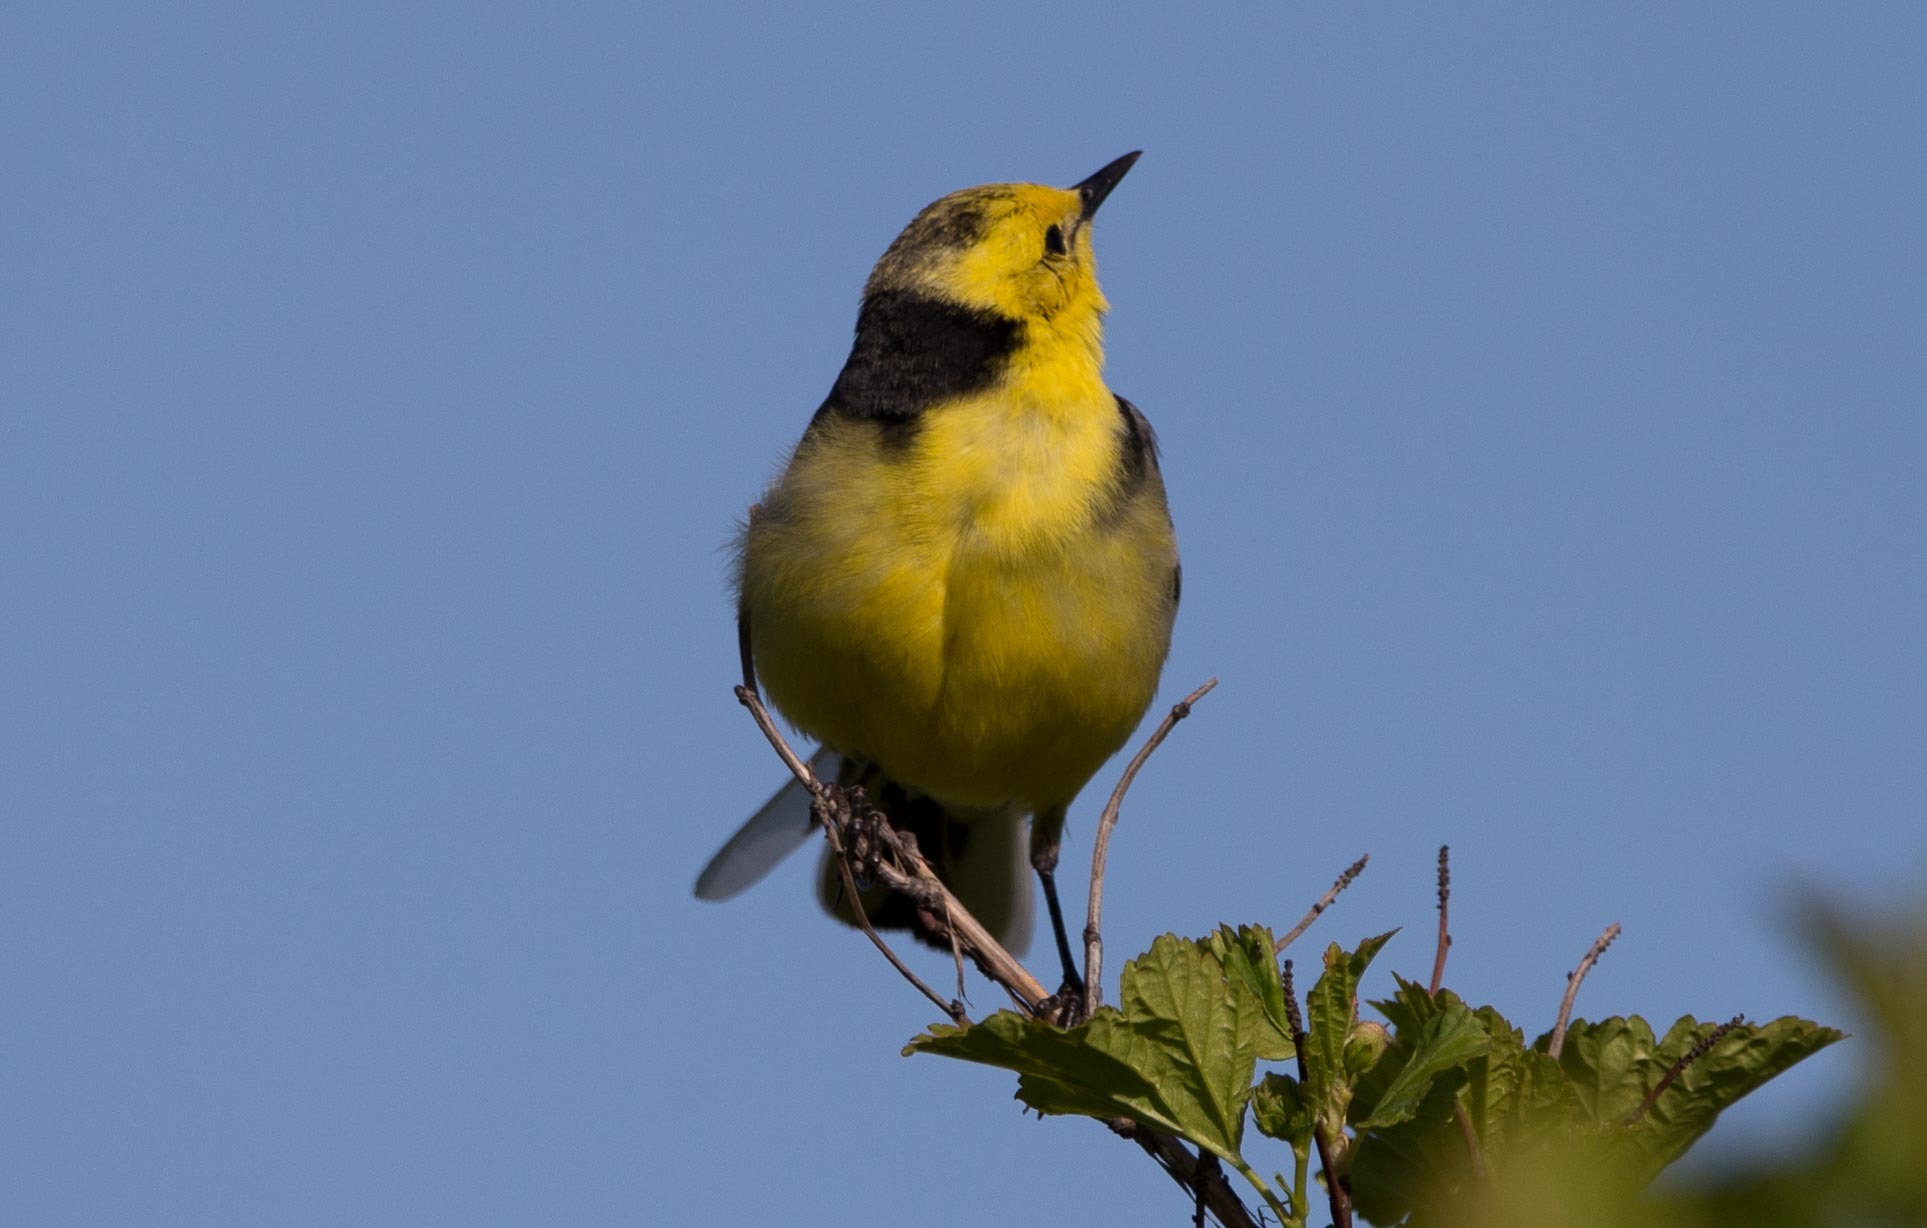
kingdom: Animalia
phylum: Chordata
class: Aves
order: Passeriformes
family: Motacillidae
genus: Motacilla
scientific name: Motacilla citreola
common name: Citrine wagtail
